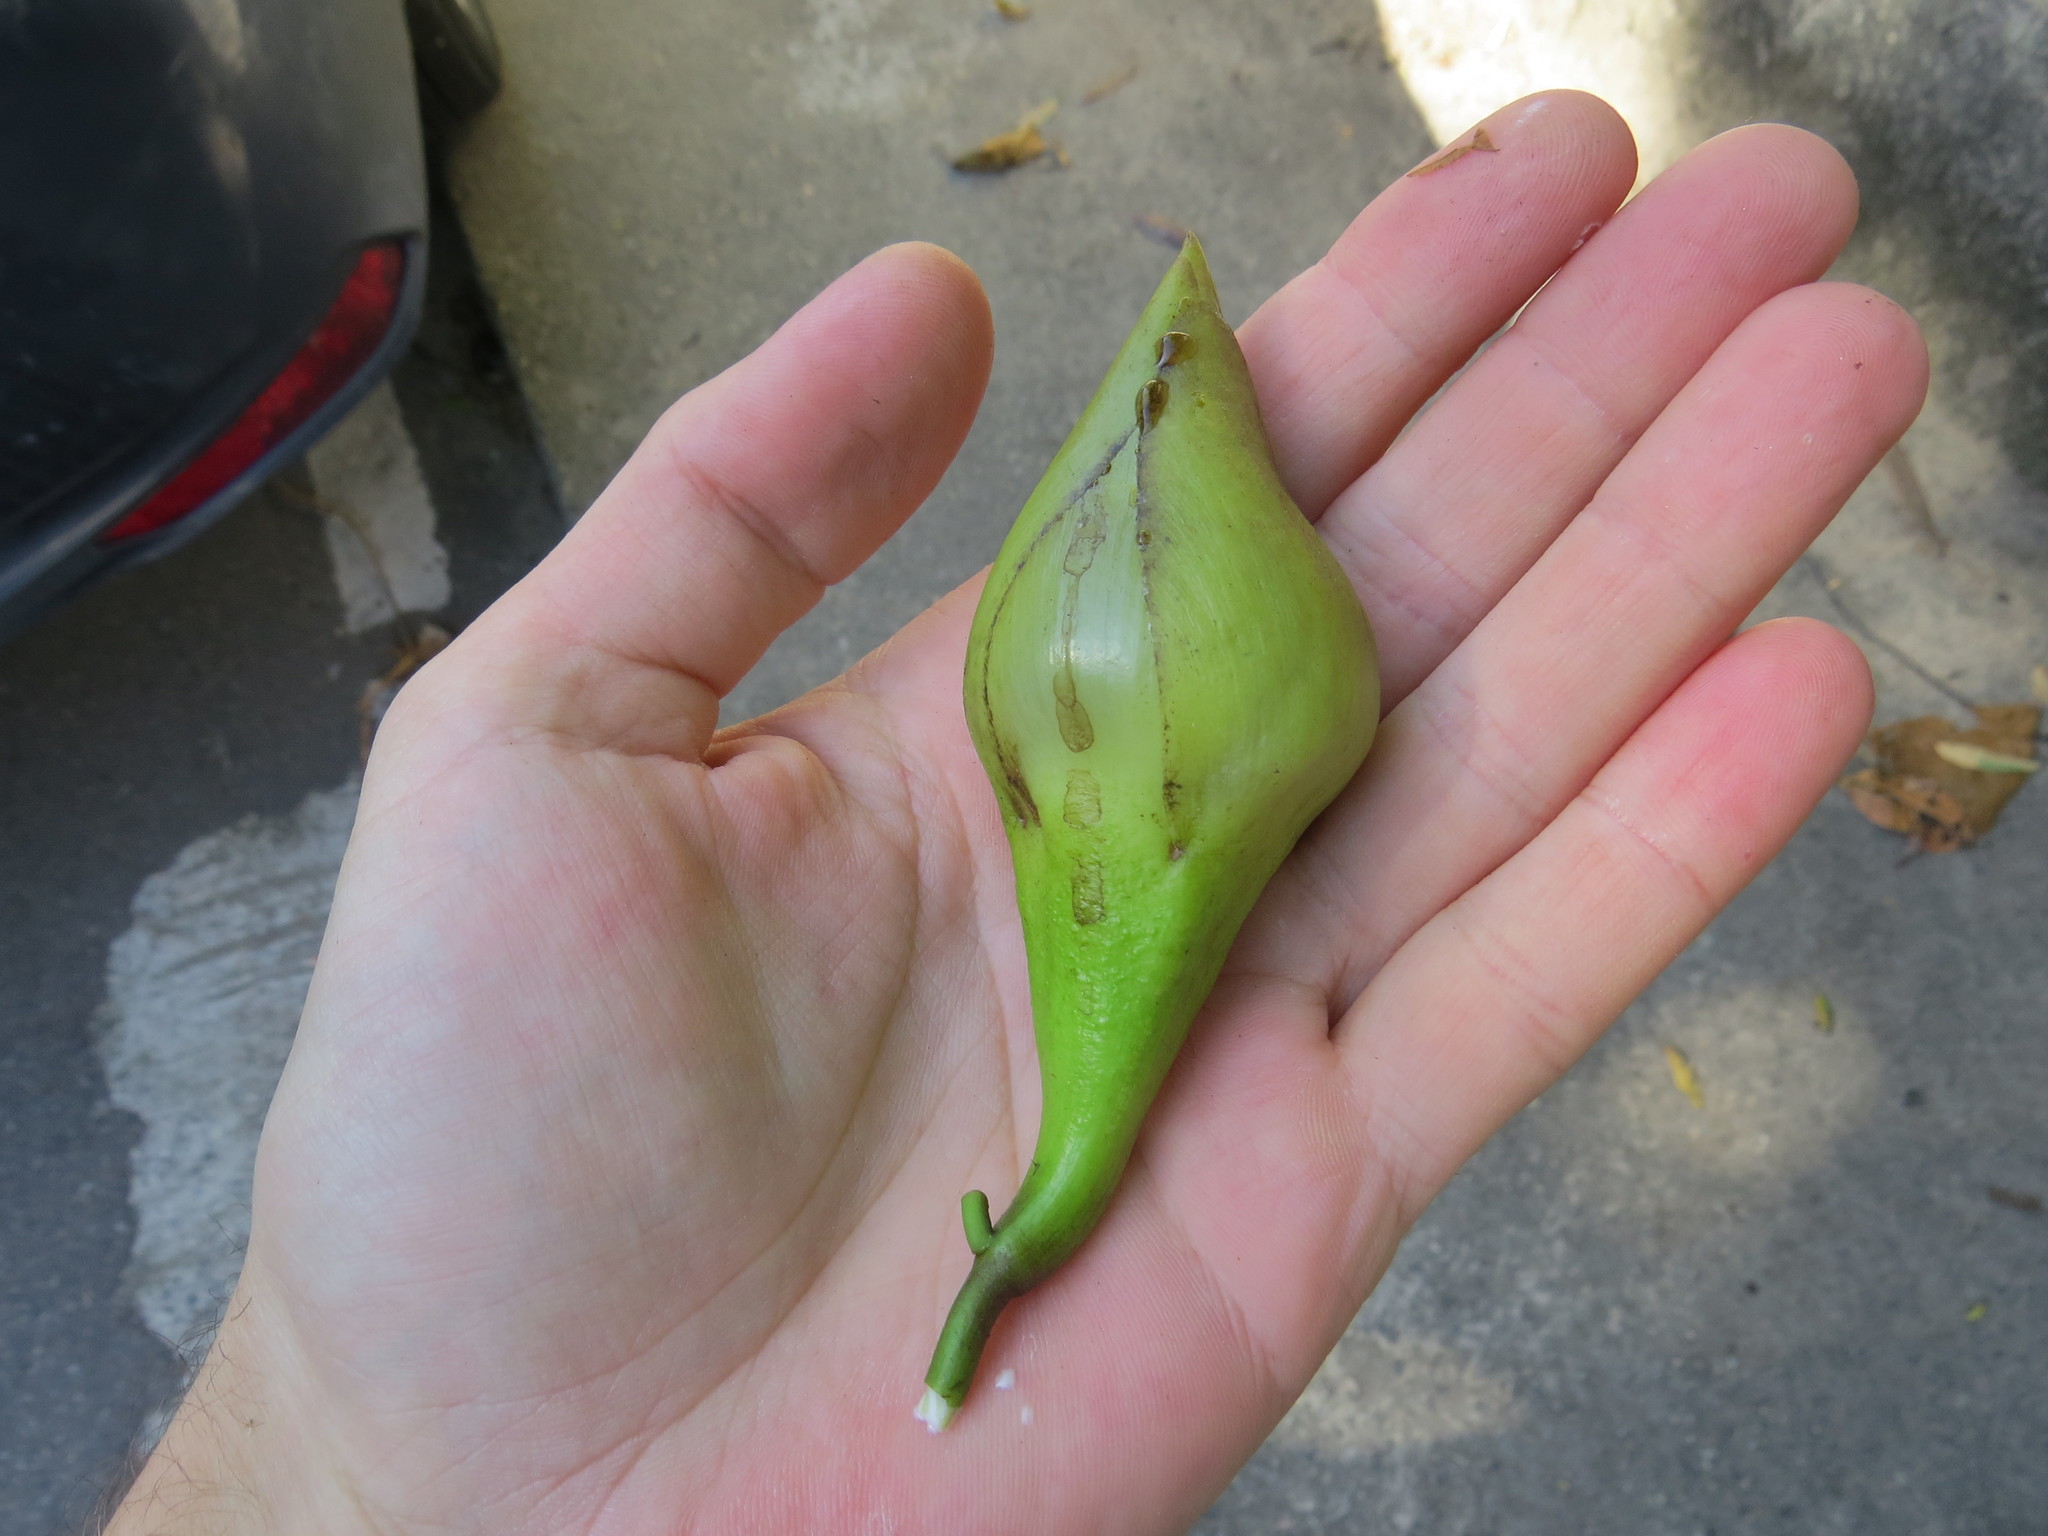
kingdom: Plantae
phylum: Tracheophyta
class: Magnoliopsida
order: Solanales
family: Convolvulaceae
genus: Distimake
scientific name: Distimake tuberosus
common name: Spanish arborvine
